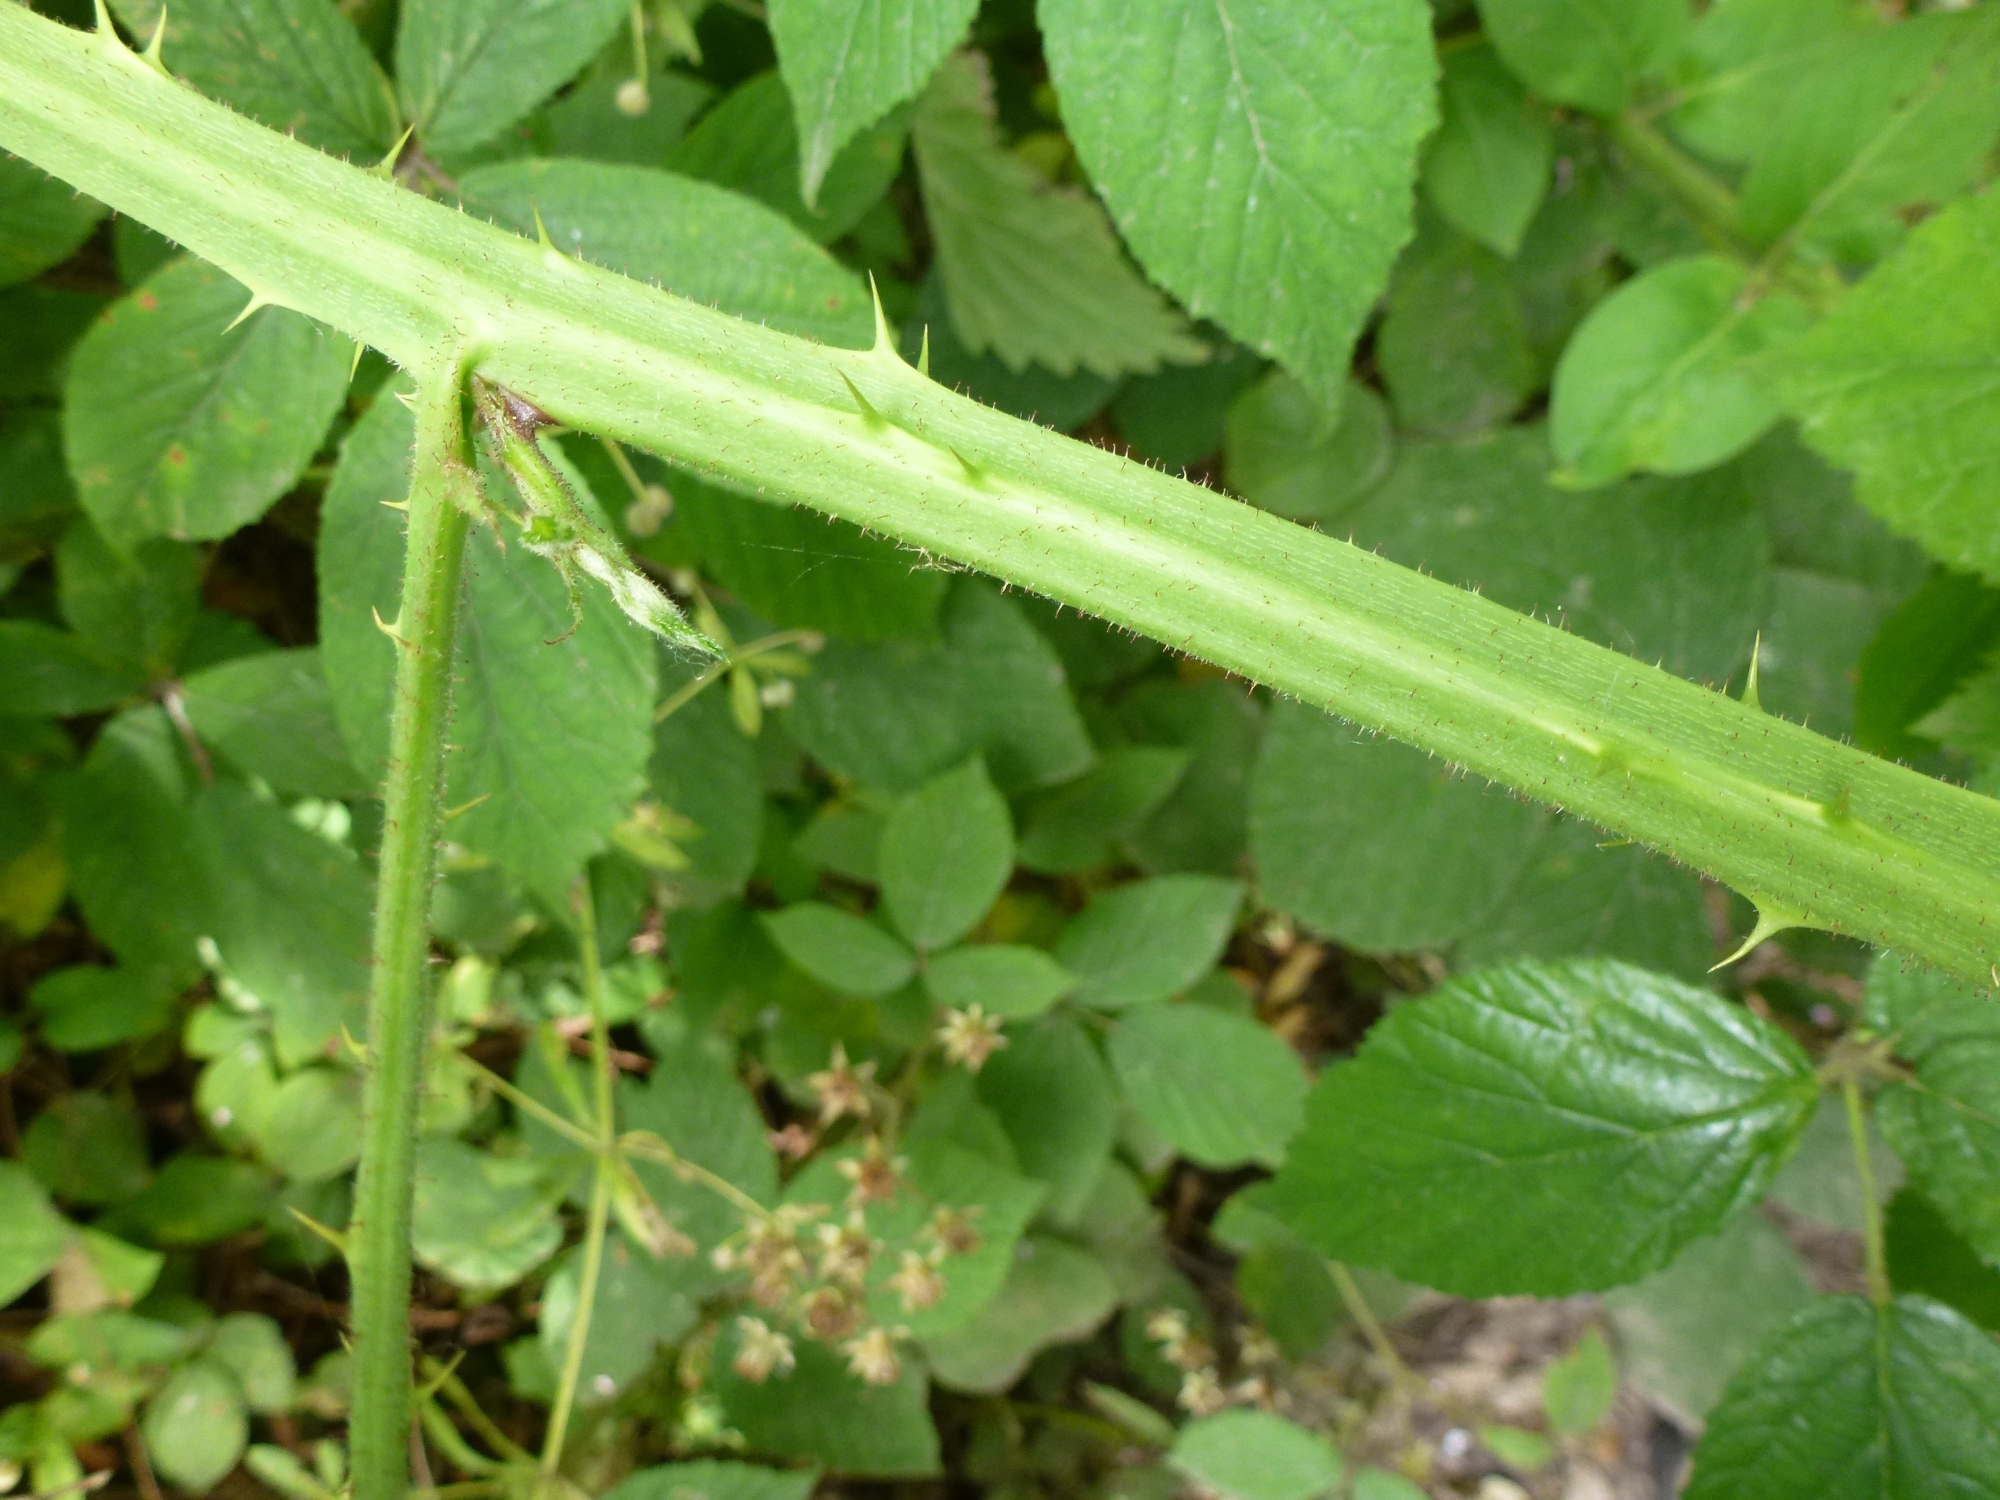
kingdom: Plantae
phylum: Tracheophyta
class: Magnoliopsida
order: Rosales
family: Rosaceae
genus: Rubus
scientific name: Rubus rufescens
